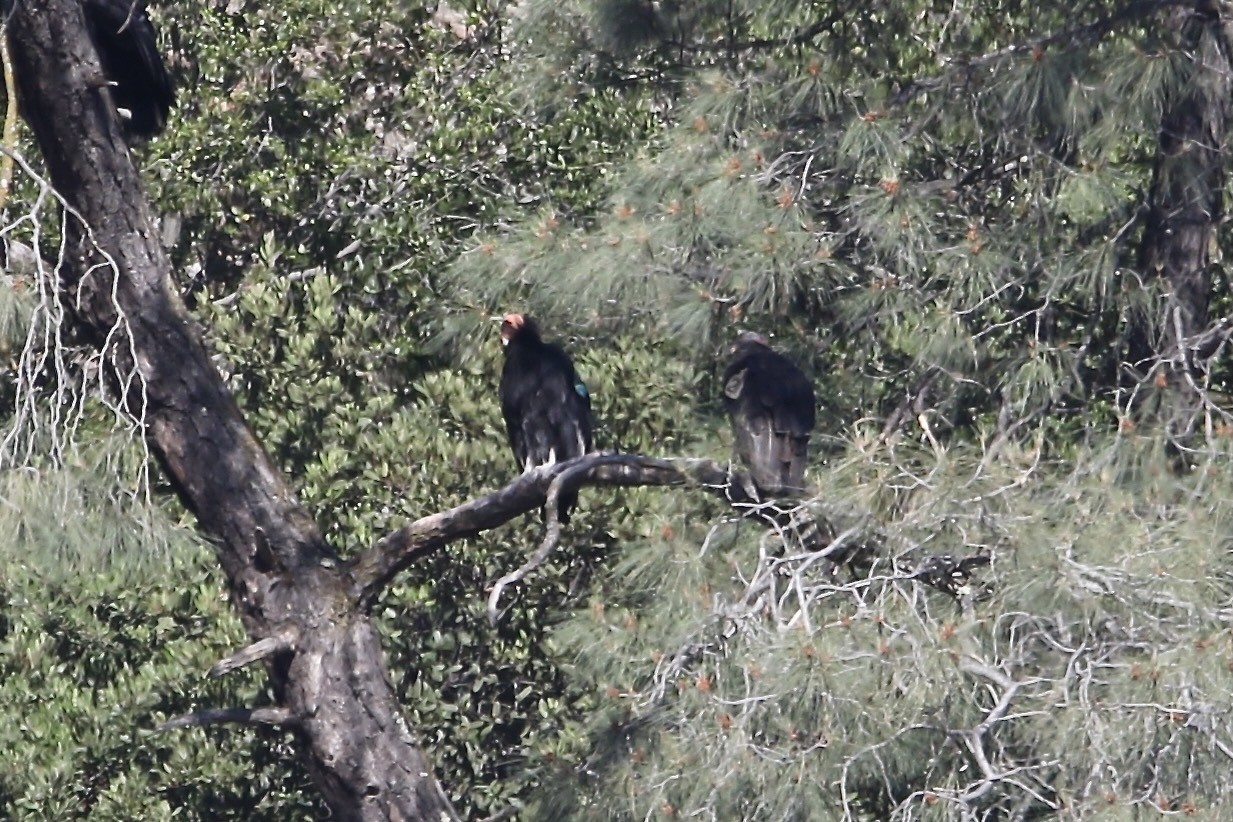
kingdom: Animalia
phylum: Chordata
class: Aves
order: Accipitriformes
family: Cathartidae
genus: Gymnogyps
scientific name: Gymnogyps californianus
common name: California condor
